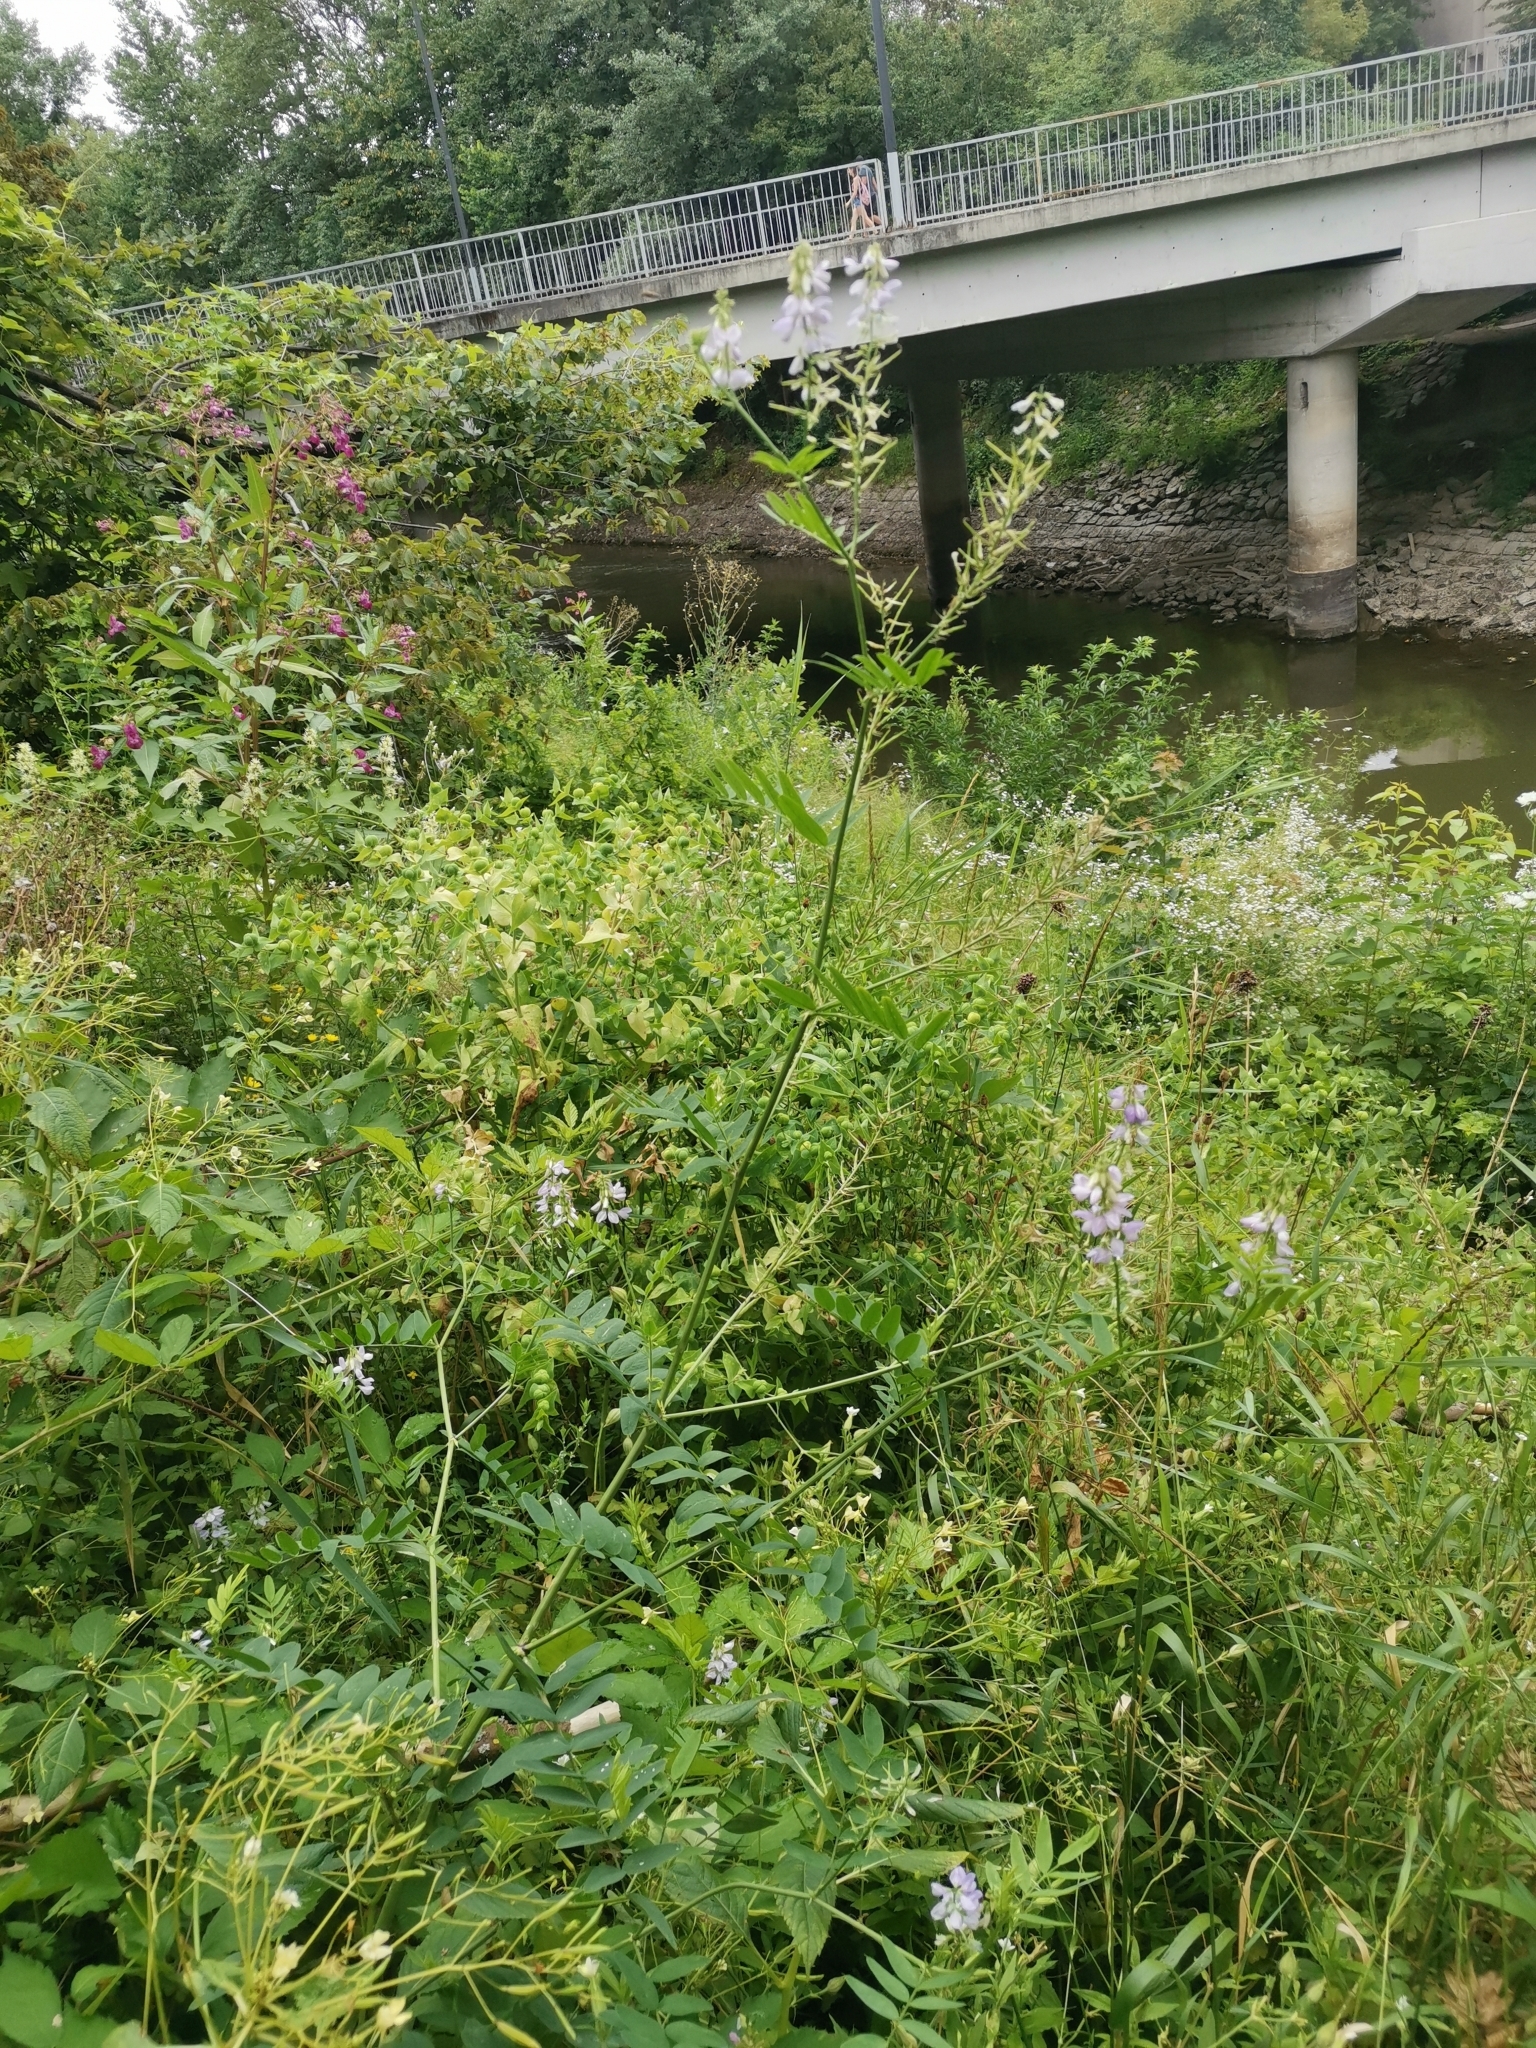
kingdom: Plantae
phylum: Tracheophyta
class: Magnoliopsida
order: Fabales
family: Fabaceae
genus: Galega
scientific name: Galega officinalis
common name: Goat's-rue
